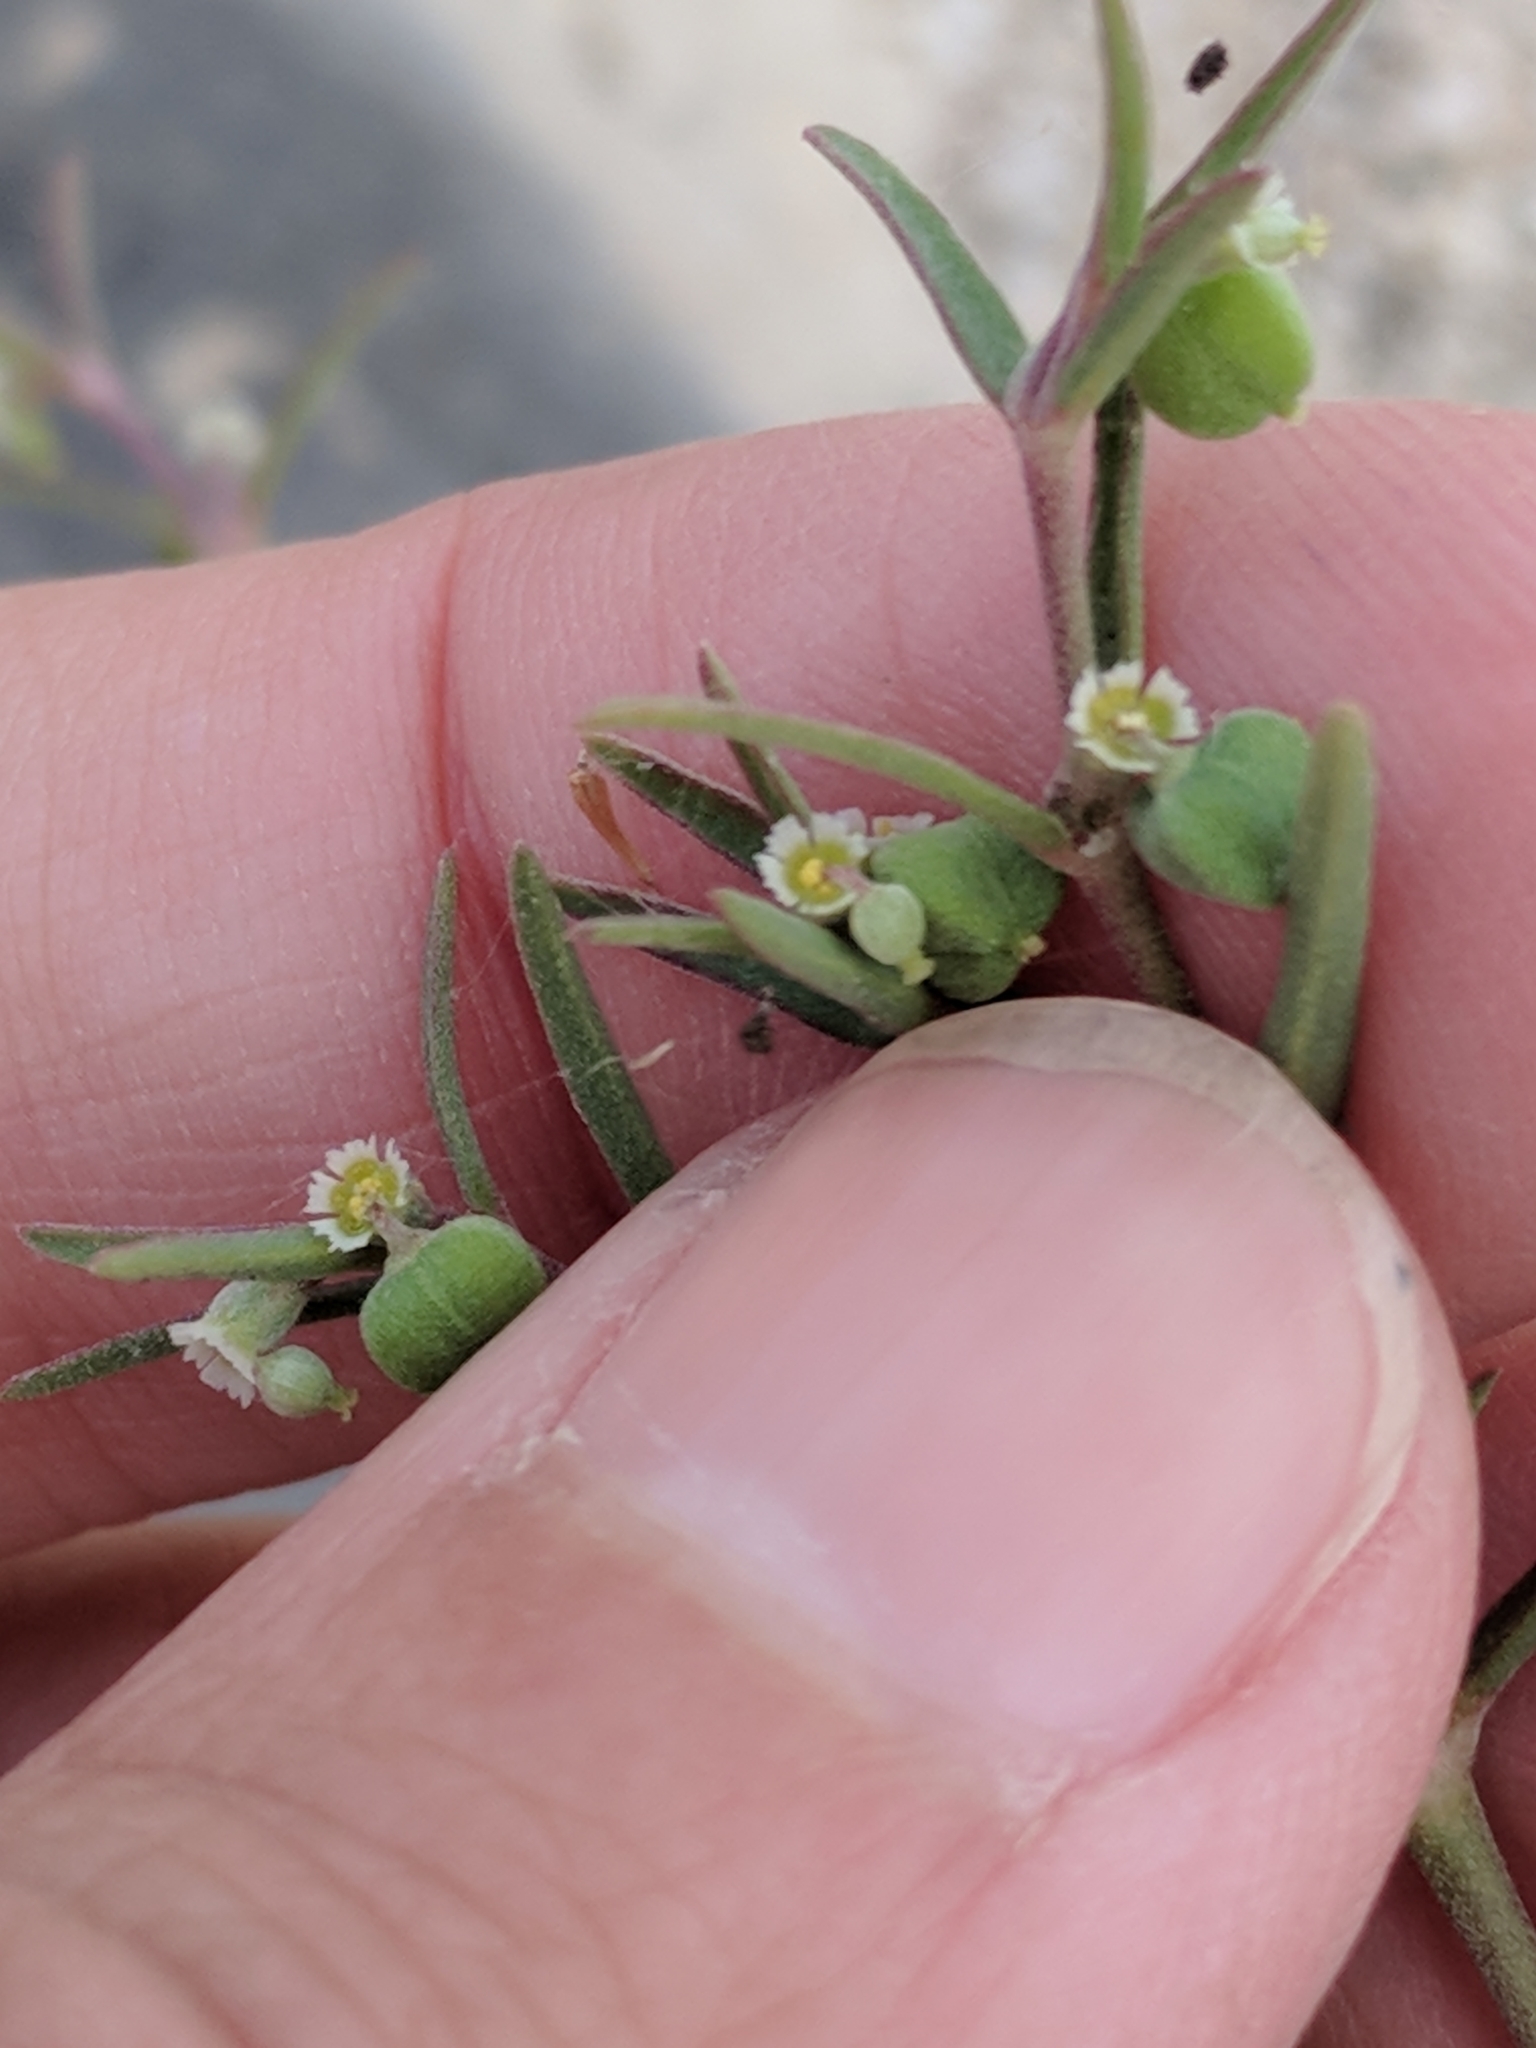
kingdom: Plantae
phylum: Tracheophyta
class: Magnoliopsida
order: Malpighiales
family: Euphorbiaceae
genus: Euphorbia
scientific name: Euphorbia angusta
